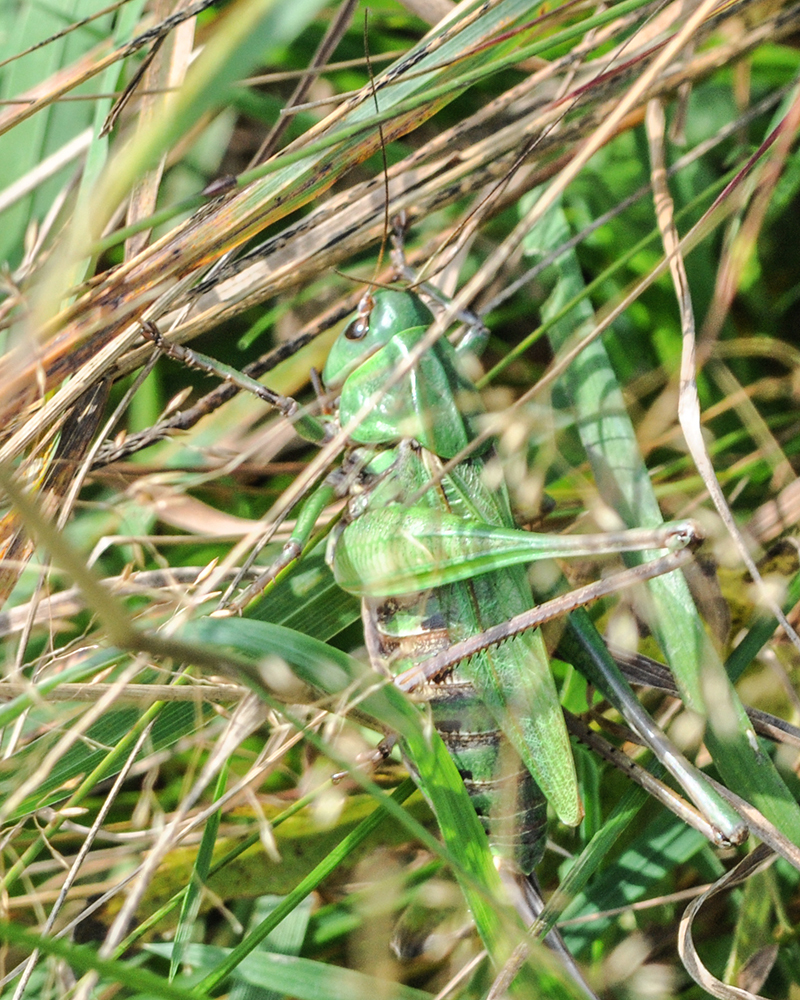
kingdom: Animalia
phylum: Arthropoda
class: Insecta
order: Orthoptera
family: Tettigoniidae
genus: Decticus
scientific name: Decticus verrucivorus
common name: Wart-biter
